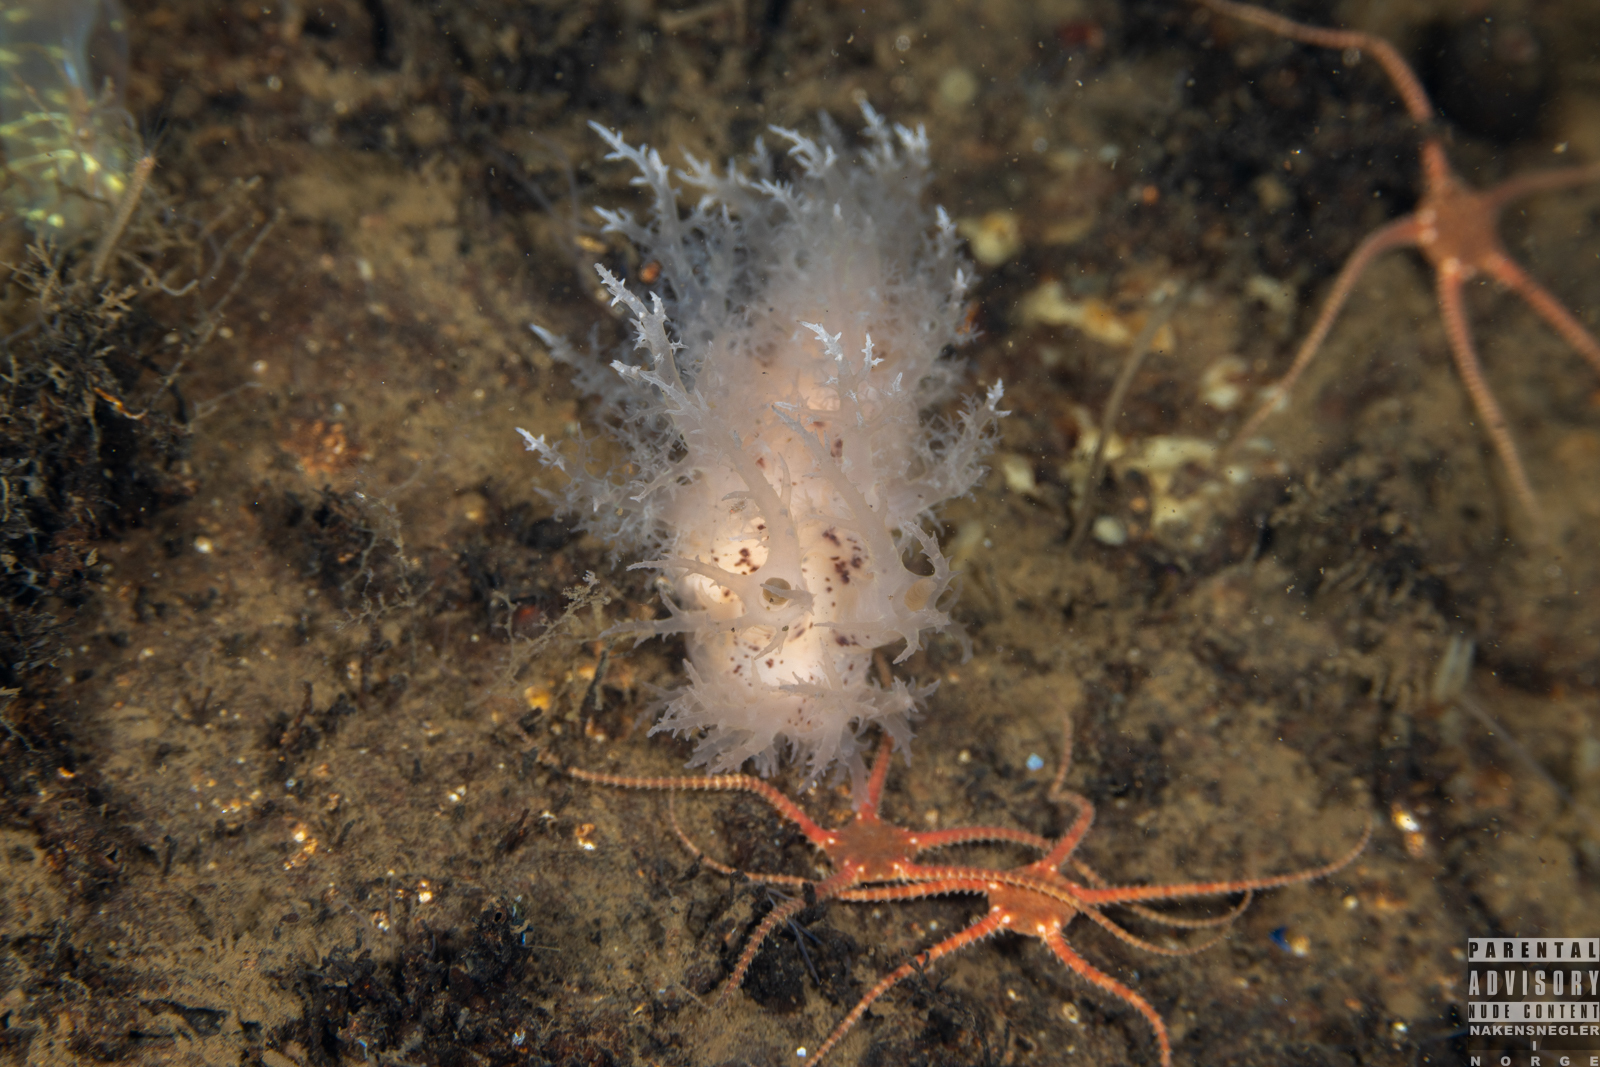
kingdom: Animalia
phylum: Mollusca
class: Gastropoda
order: Nudibranchia
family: Dendronotidae
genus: Dendronotus
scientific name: Dendronotus europaeus
